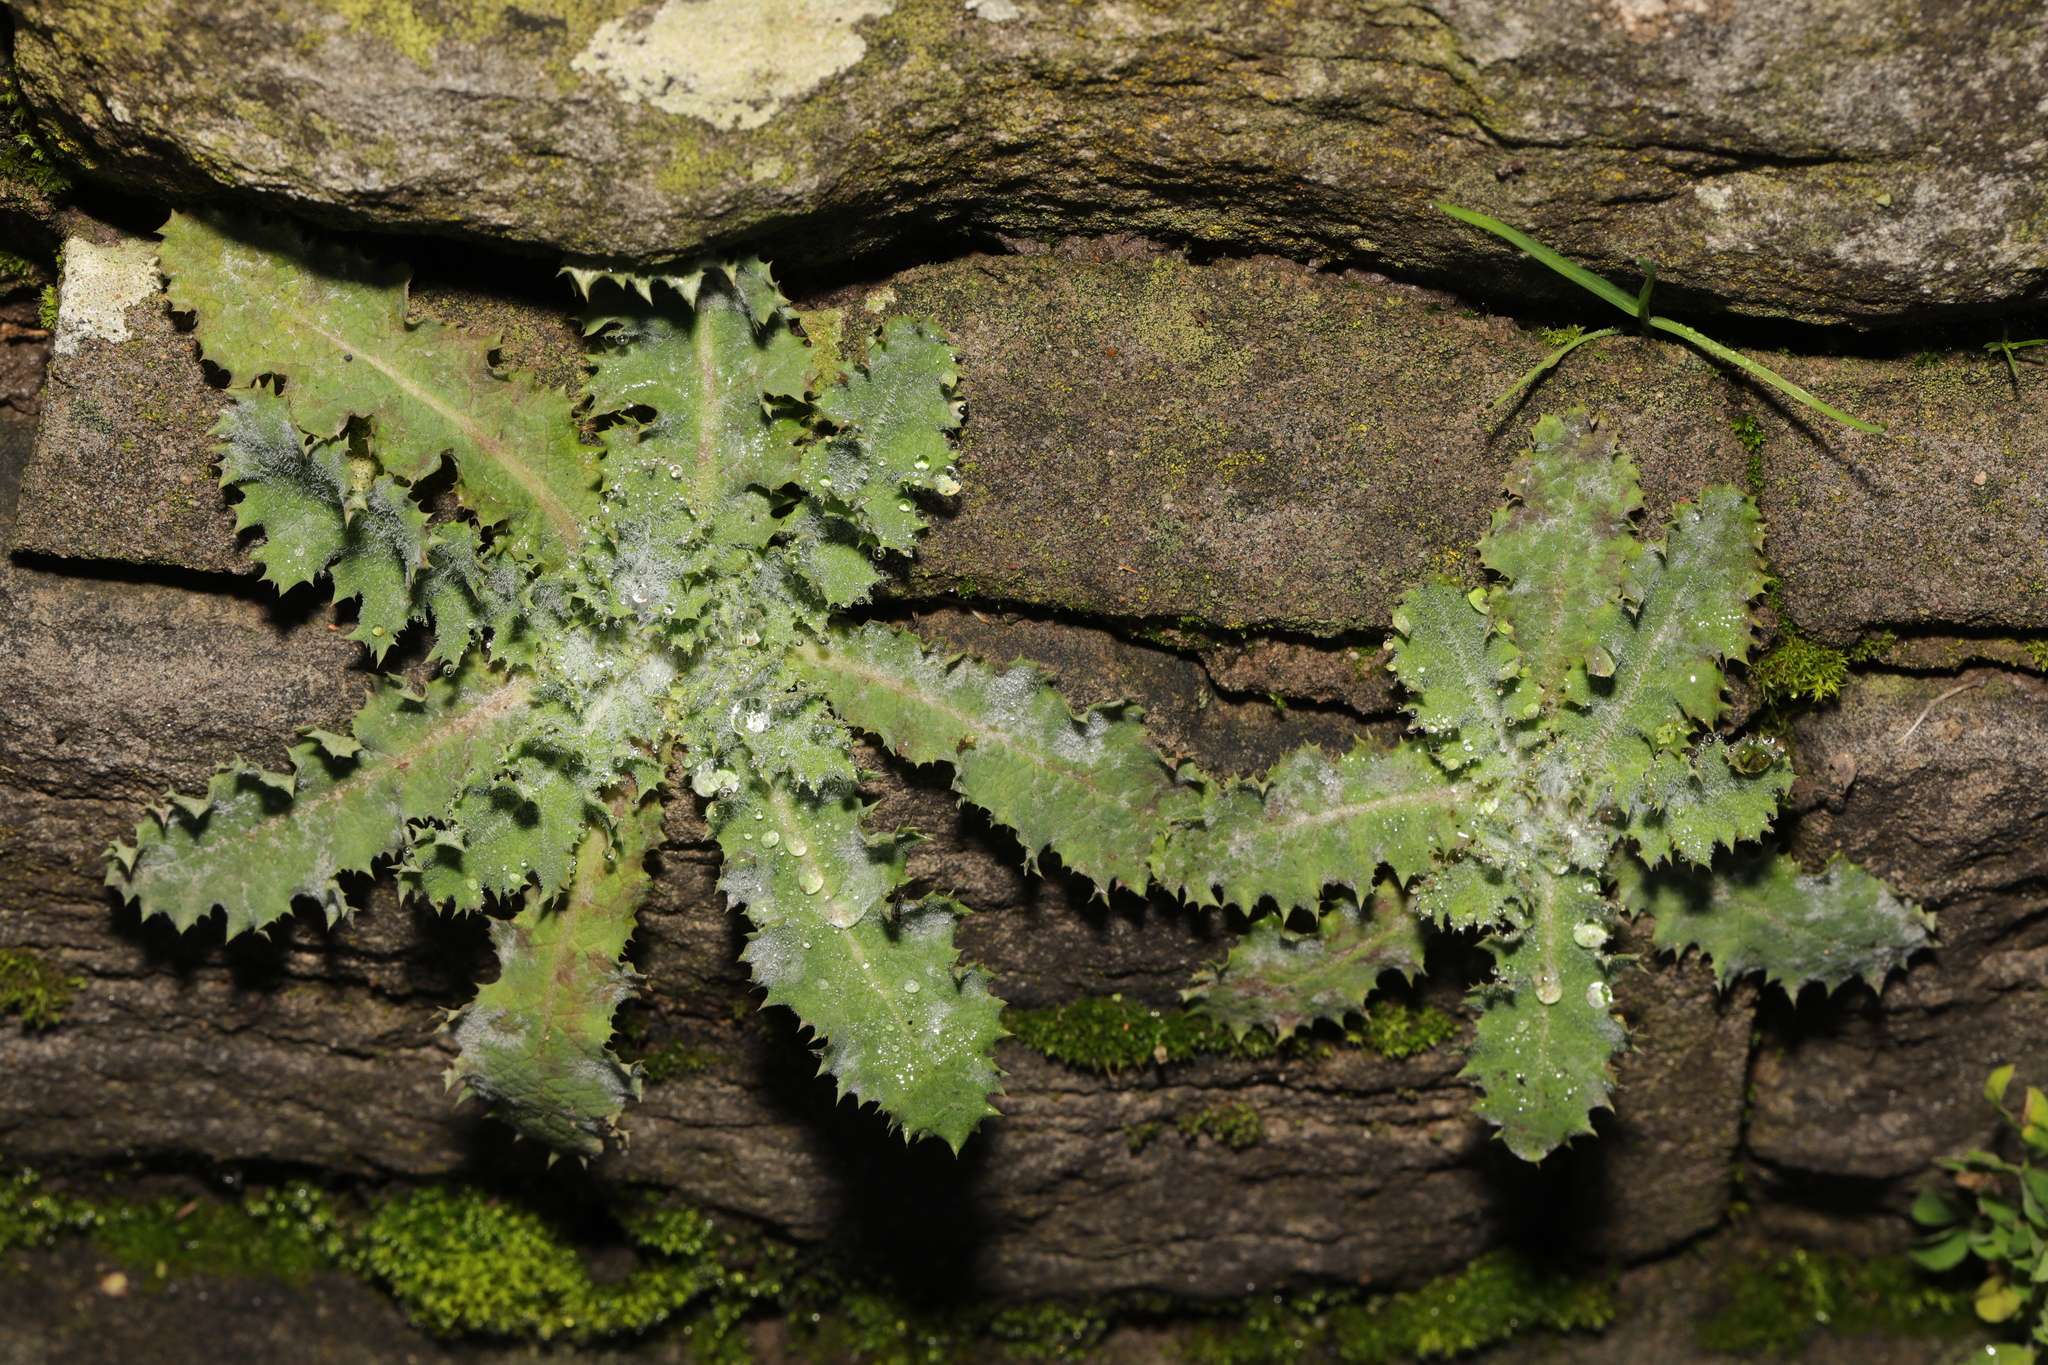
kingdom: Plantae
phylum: Tracheophyta
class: Magnoliopsida
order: Asterales
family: Asteraceae
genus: Sonchus
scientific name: Sonchus asper
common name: Prickly sow-thistle
